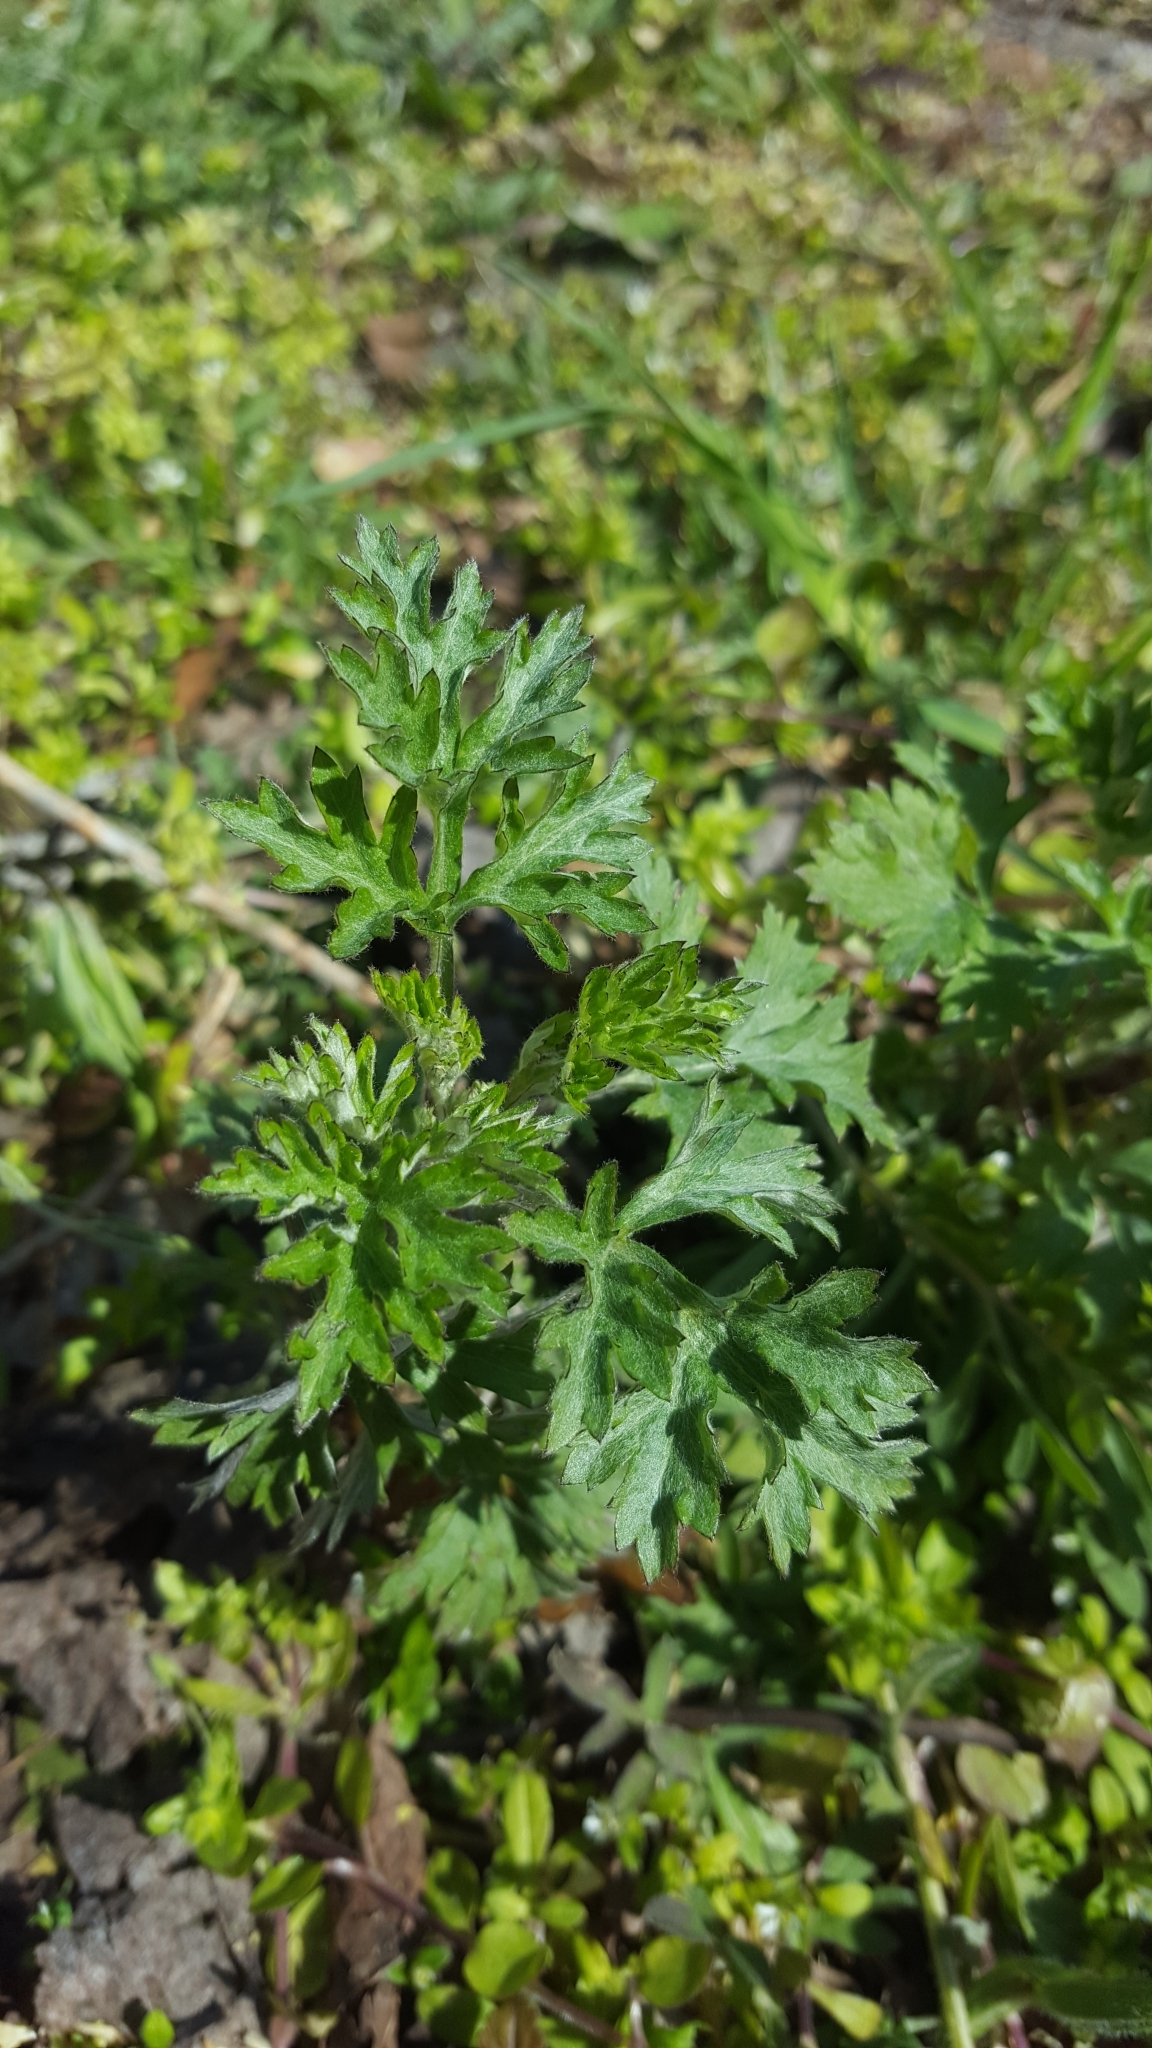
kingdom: Plantae
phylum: Tracheophyta
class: Magnoliopsida
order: Asterales
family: Asteraceae
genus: Artemisia
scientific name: Artemisia vulgaris
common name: Mugwort
